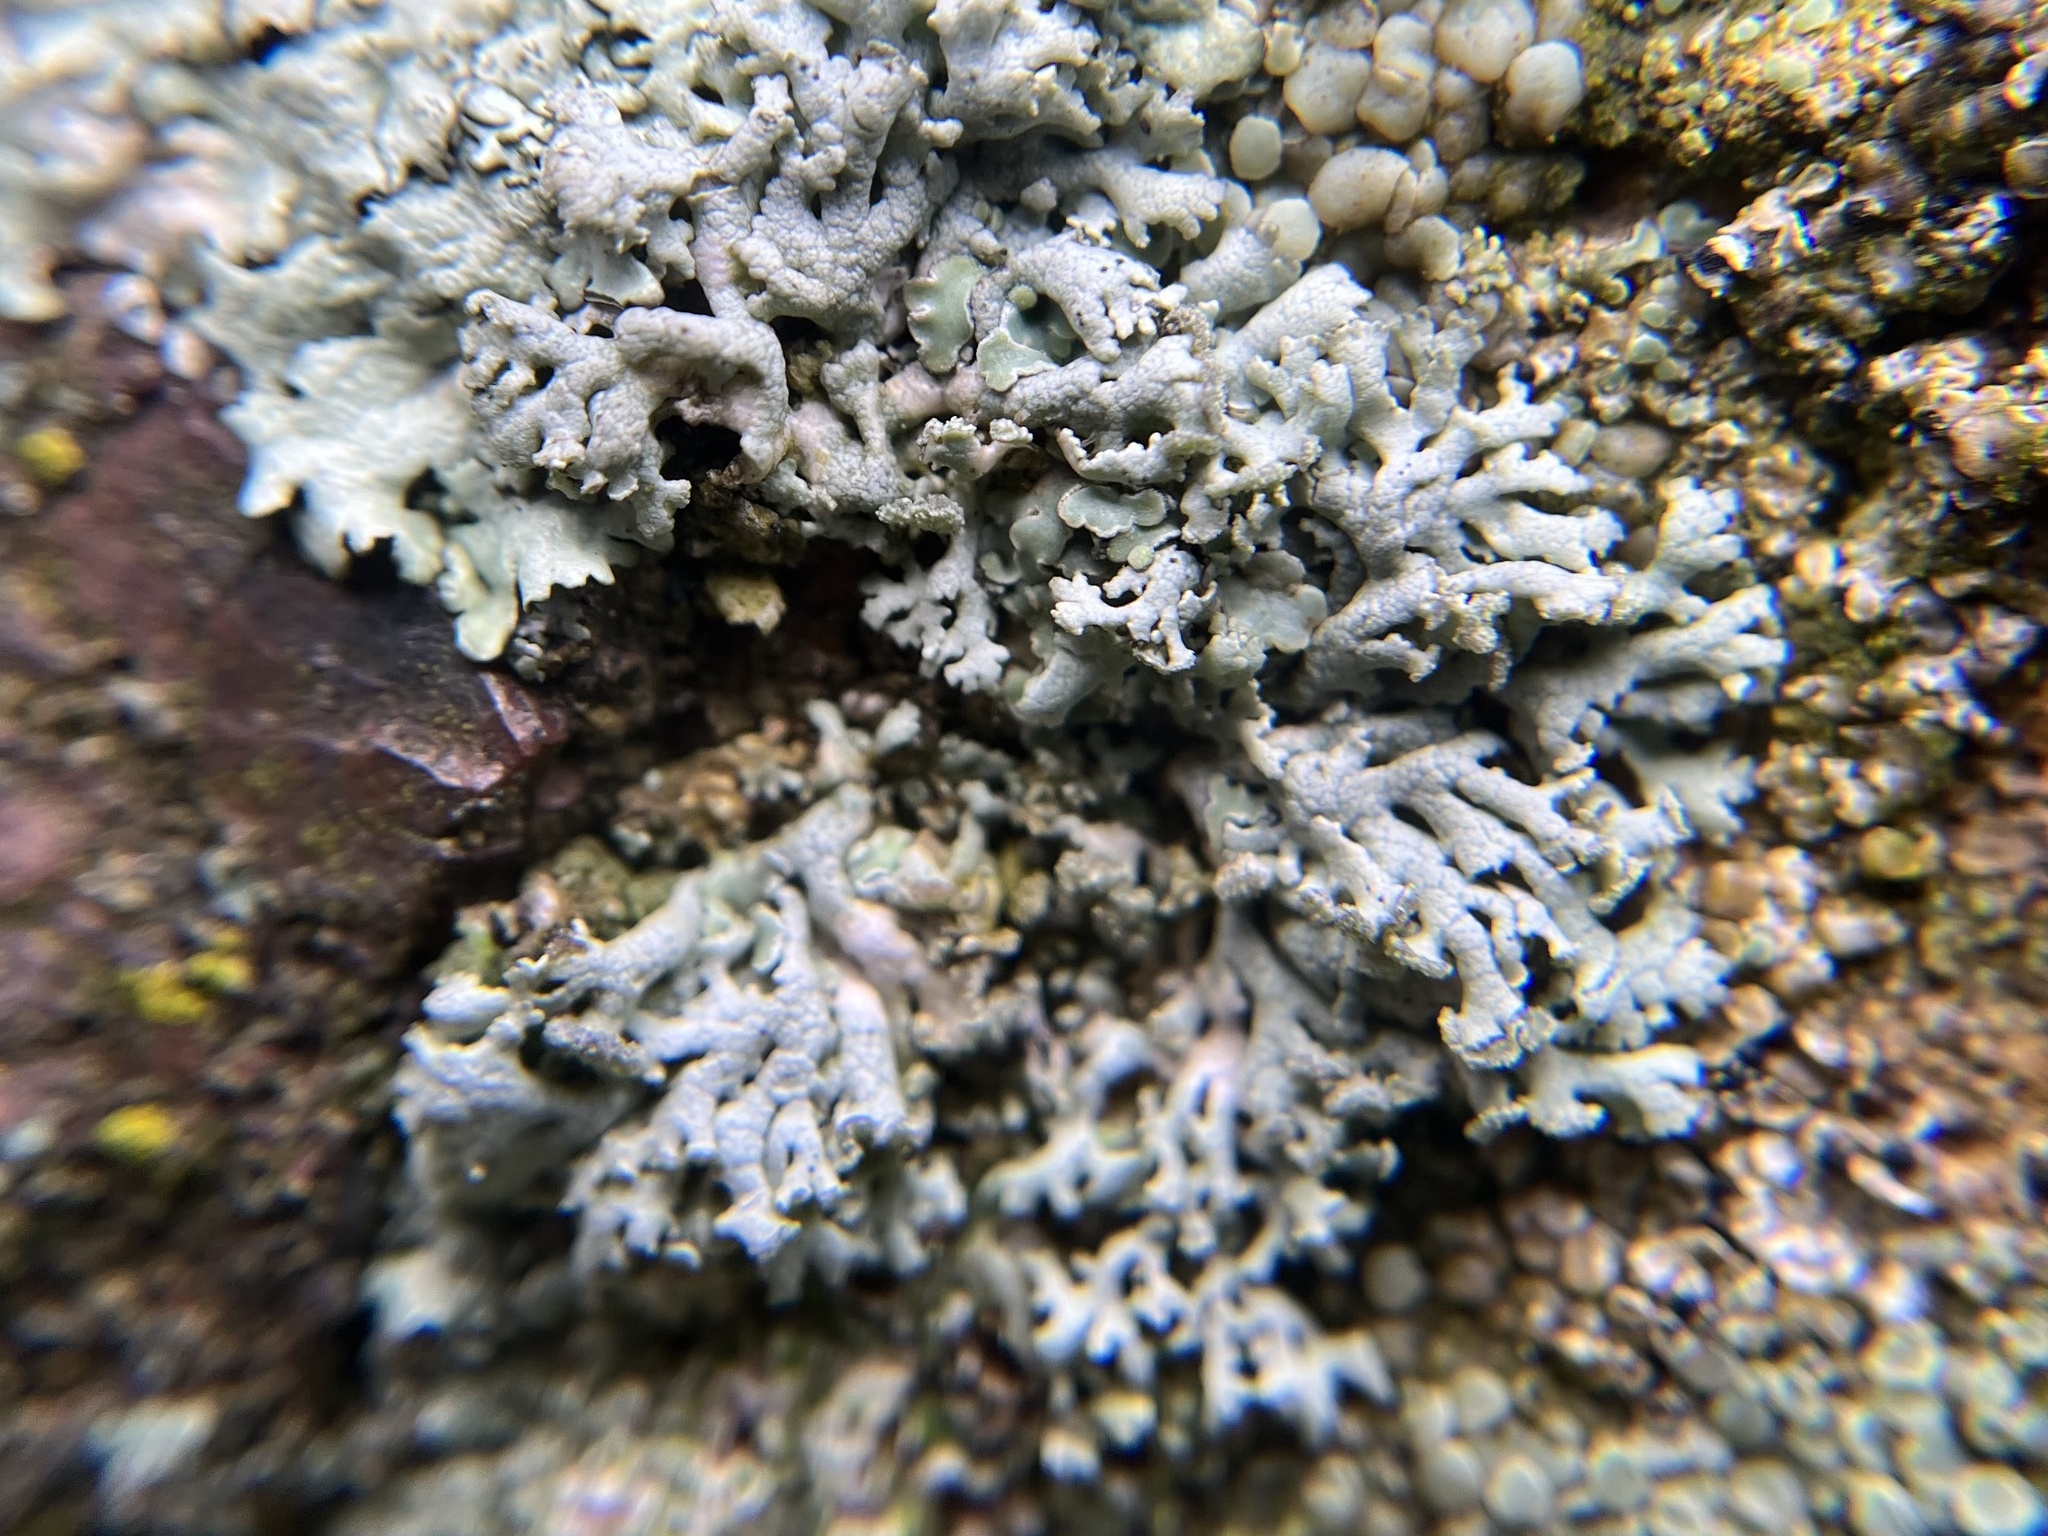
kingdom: Fungi
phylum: Ascomycota
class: Lecanoromycetes
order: Caliciales
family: Physciaceae
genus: Physcia
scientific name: Physcia dubia
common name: Powder-tipped rosette lichen
